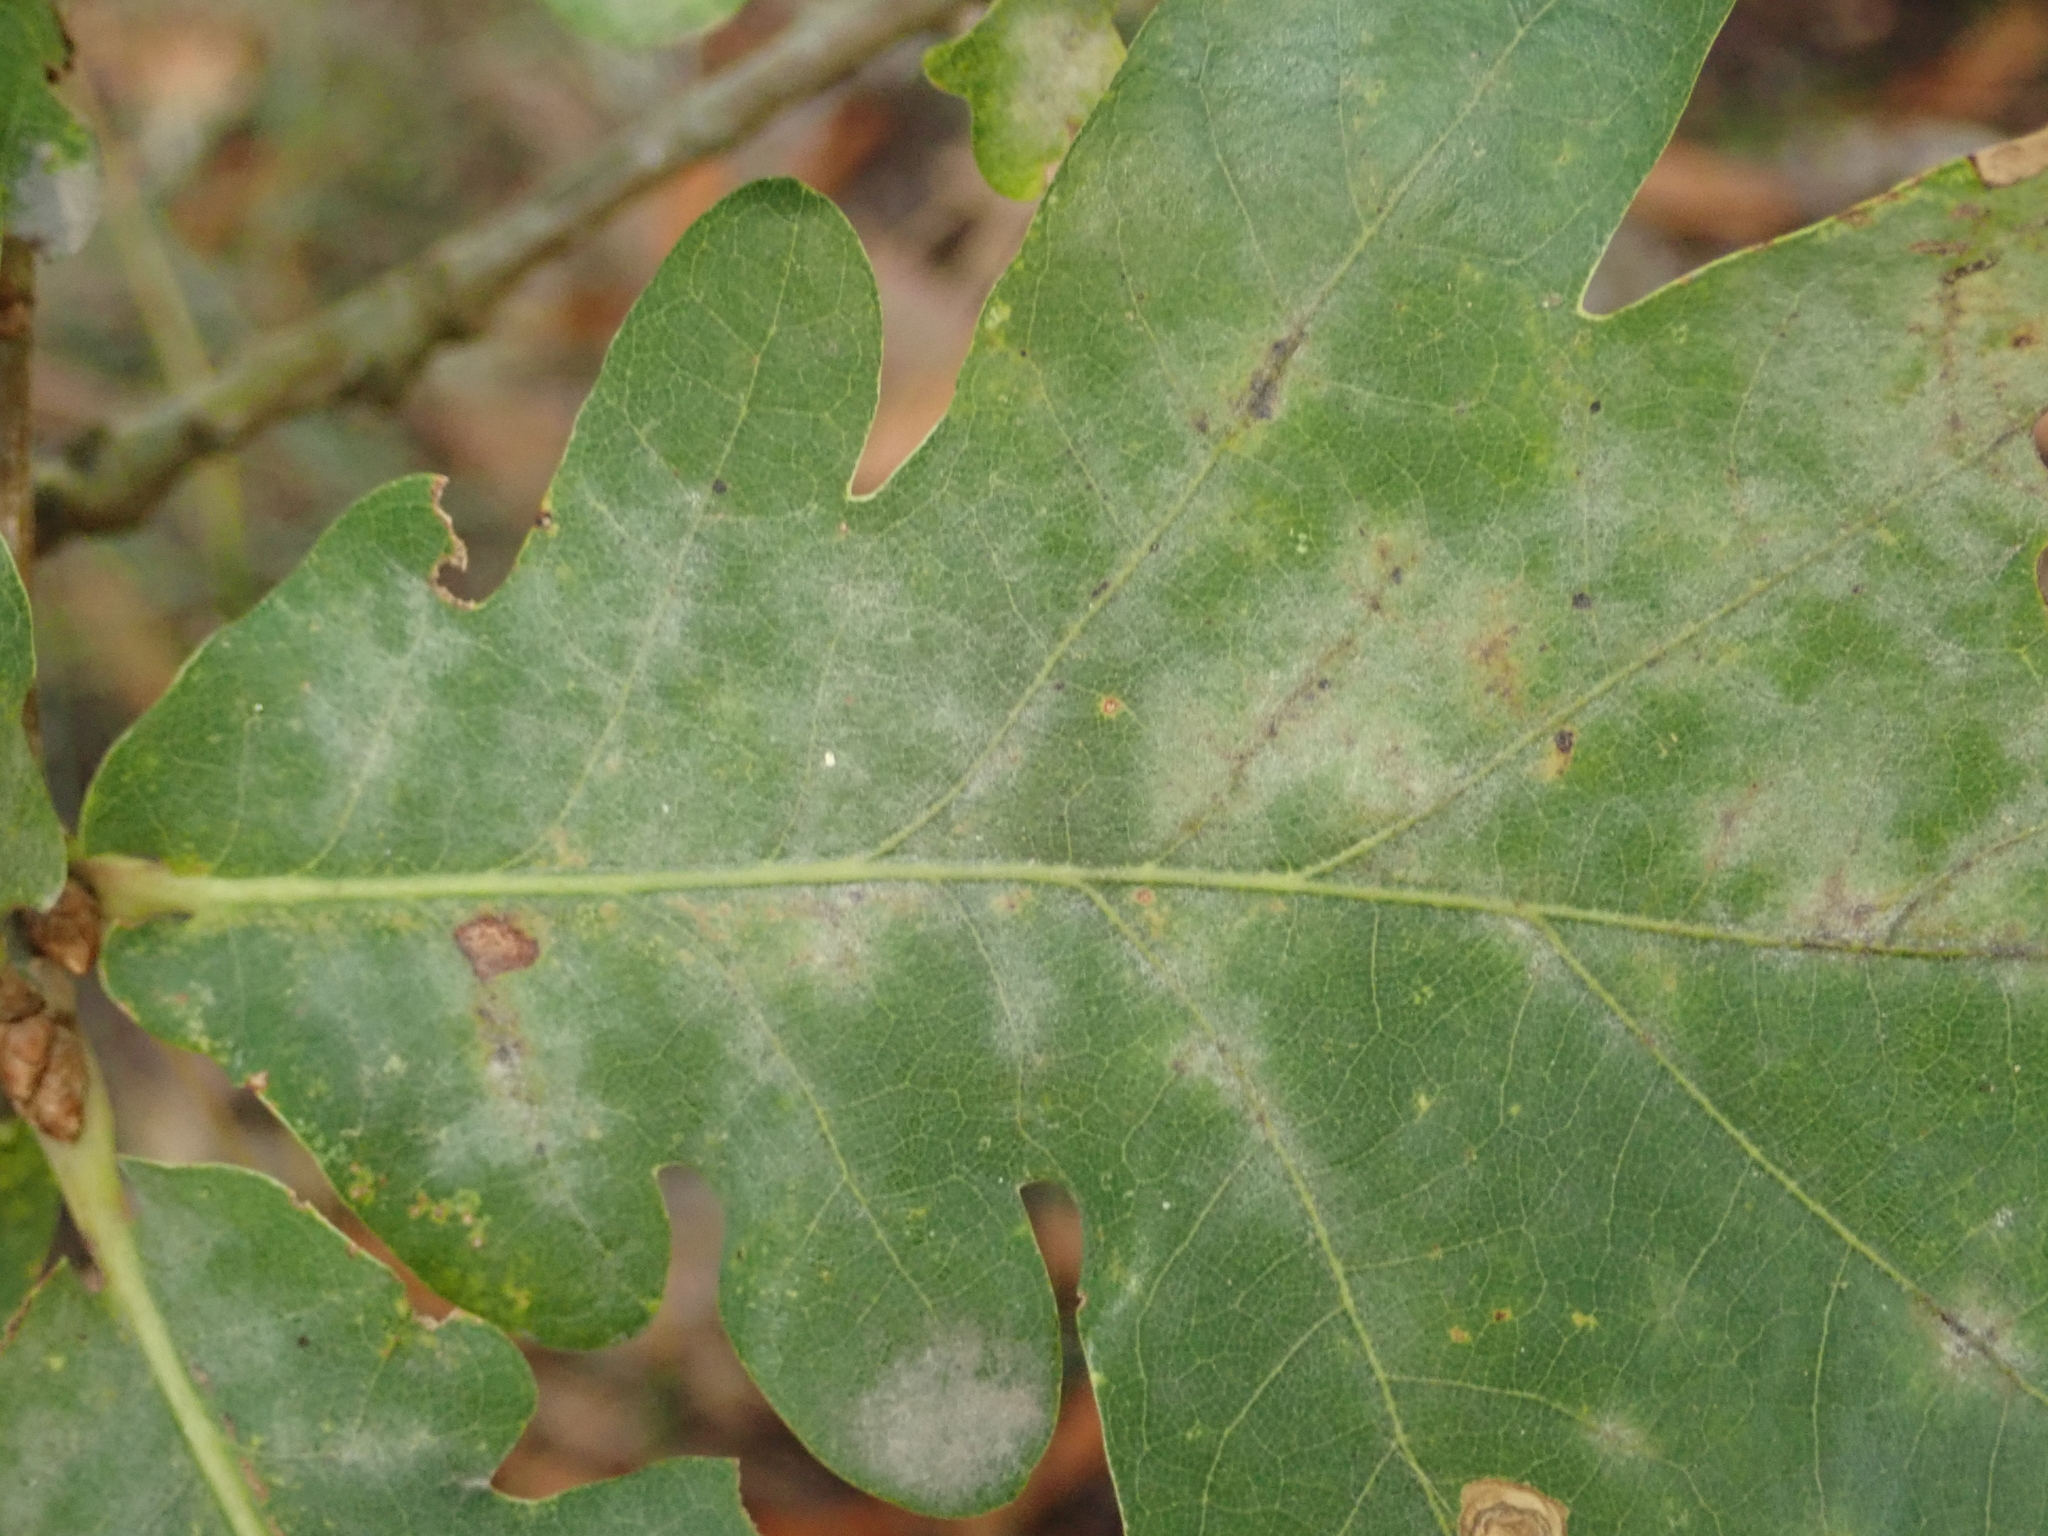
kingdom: Fungi
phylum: Ascomycota
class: Leotiomycetes
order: Helotiales
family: Erysiphaceae
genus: Erysiphe
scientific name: Erysiphe
